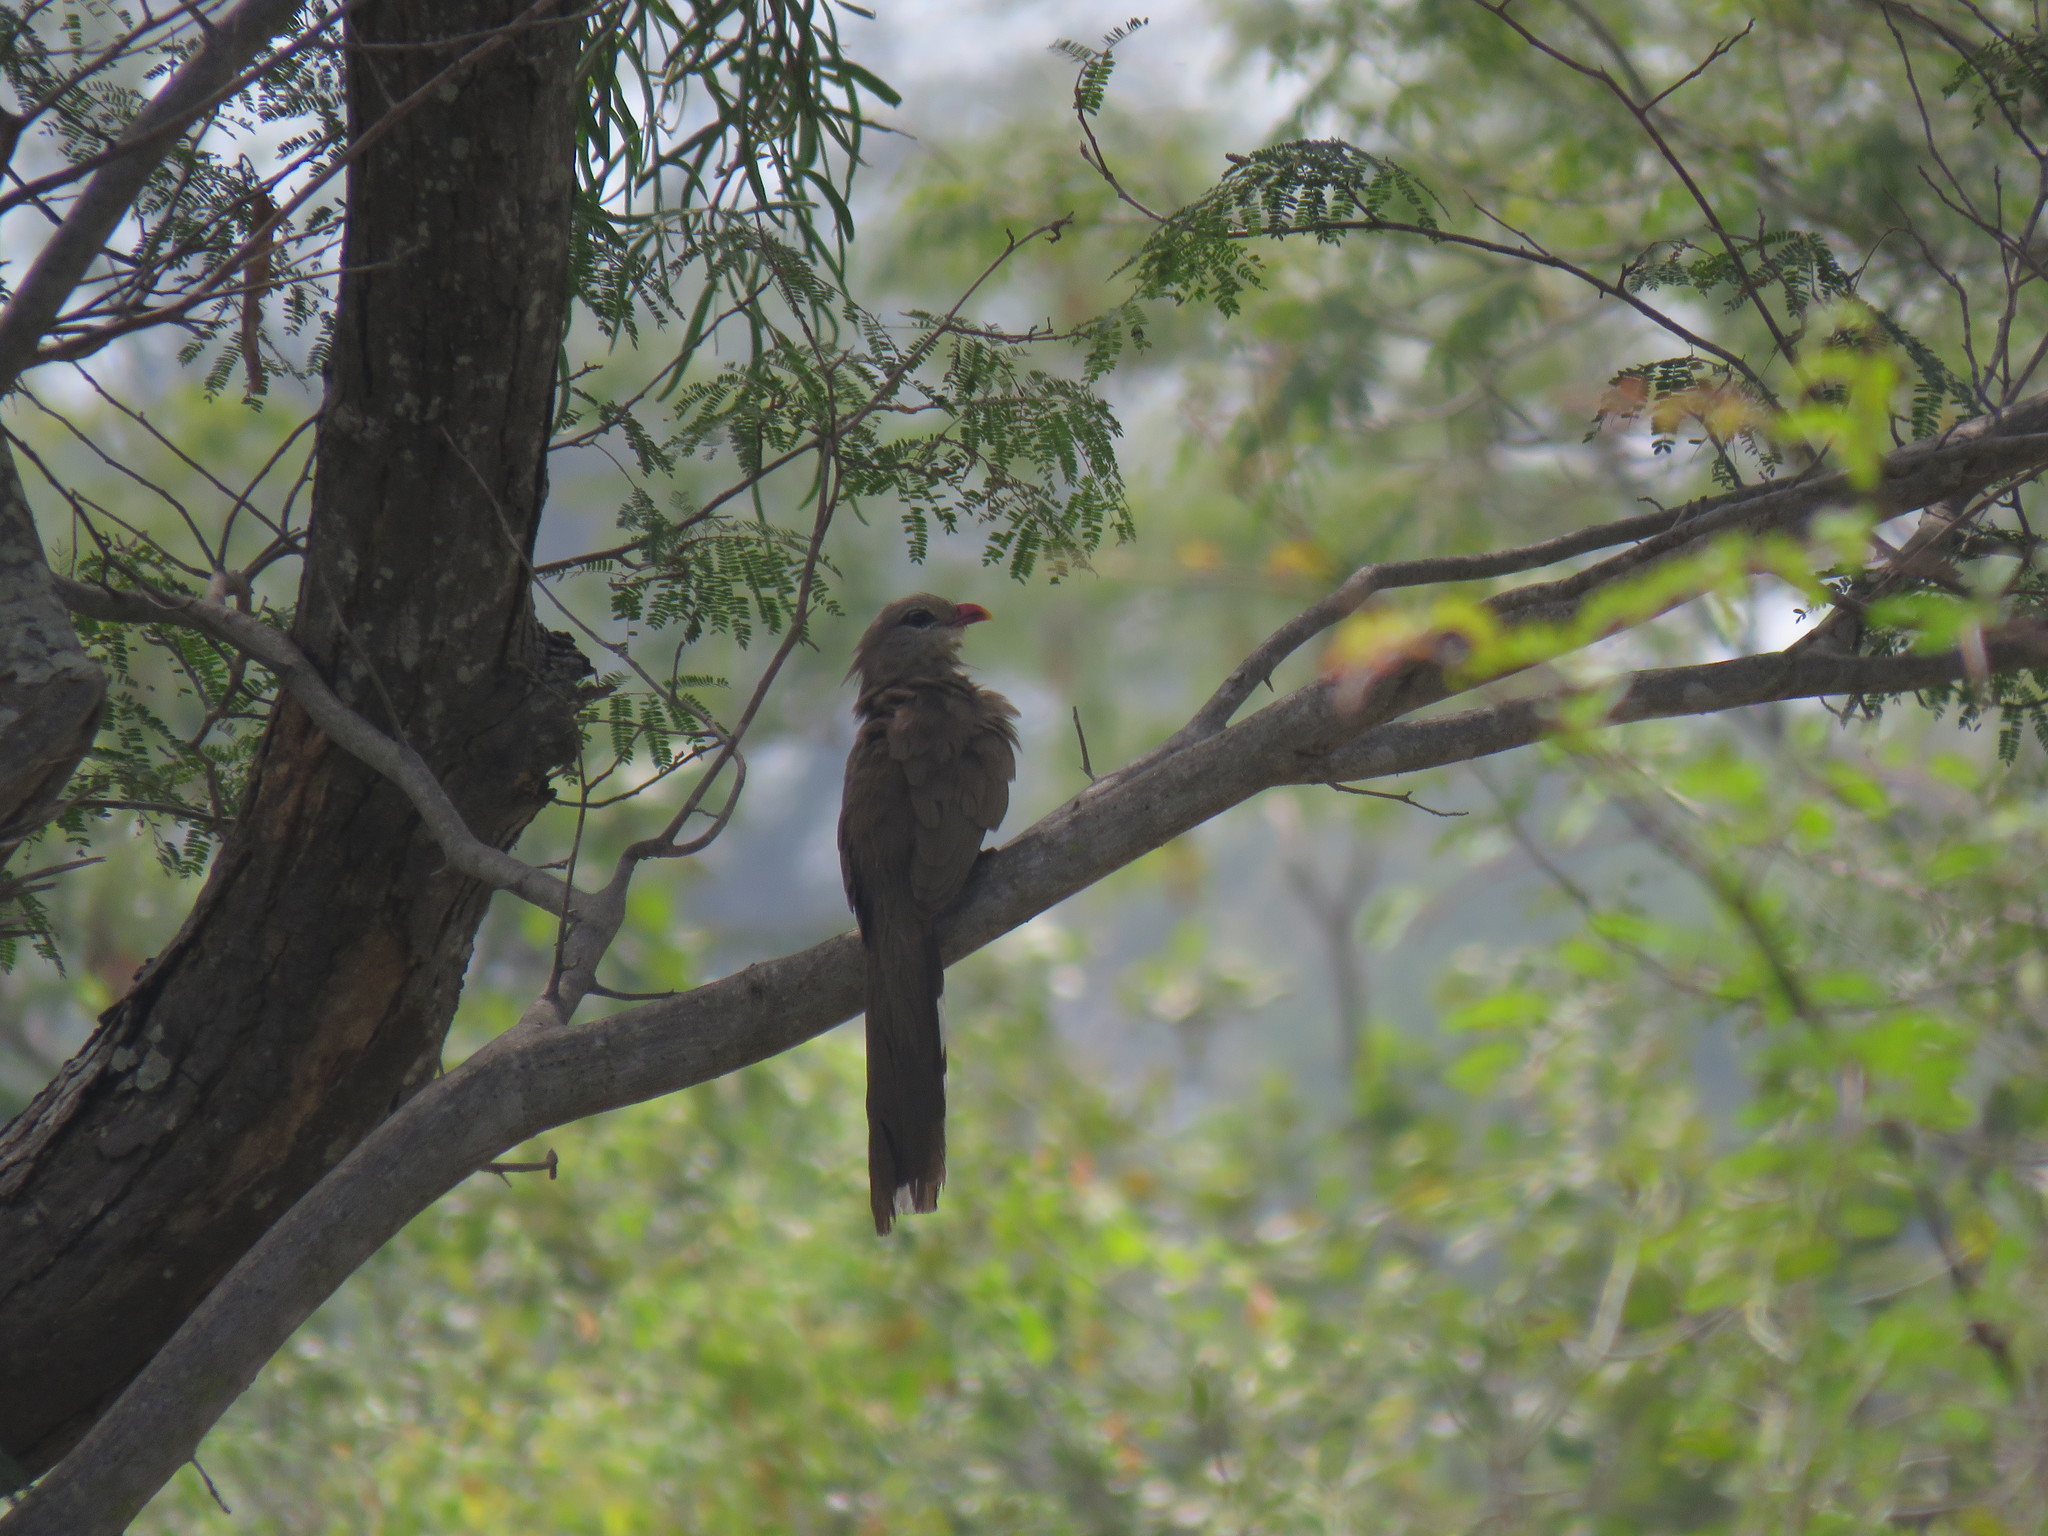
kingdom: Animalia
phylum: Chordata
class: Aves
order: Cuculiformes
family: Cuculidae
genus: Taccocua
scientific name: Taccocua leschenaultii
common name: Sirkeer malkoha
